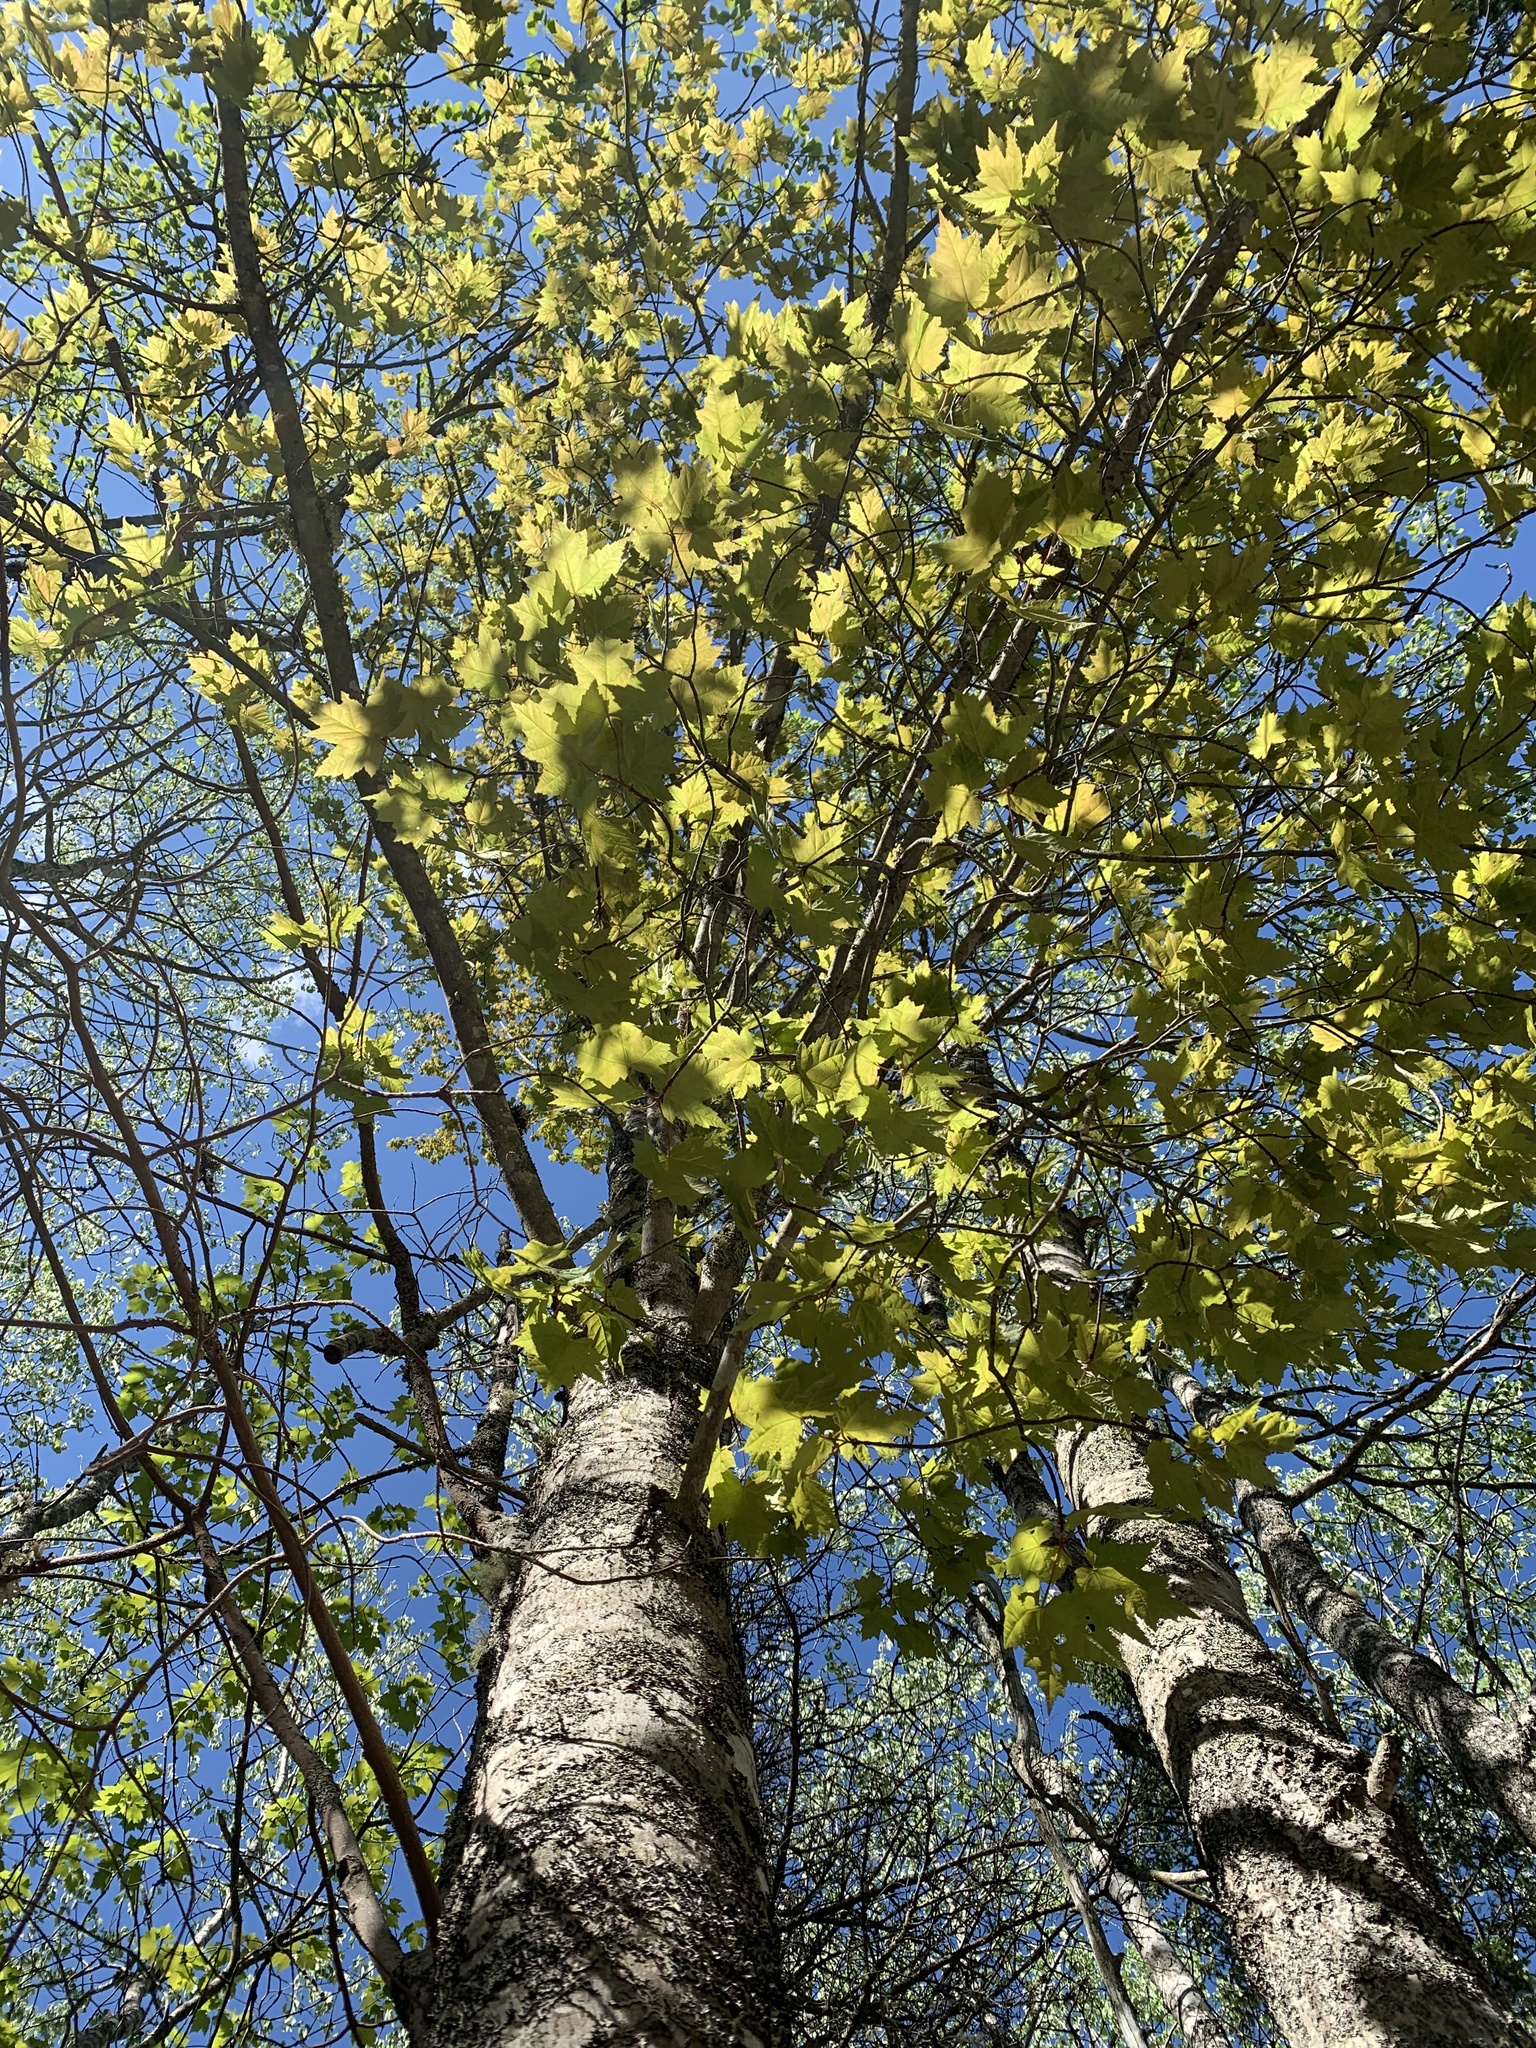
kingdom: Plantae
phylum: Tracheophyta
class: Magnoliopsida
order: Sapindales
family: Sapindaceae
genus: Acer
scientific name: Acer rubrum
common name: Red maple
